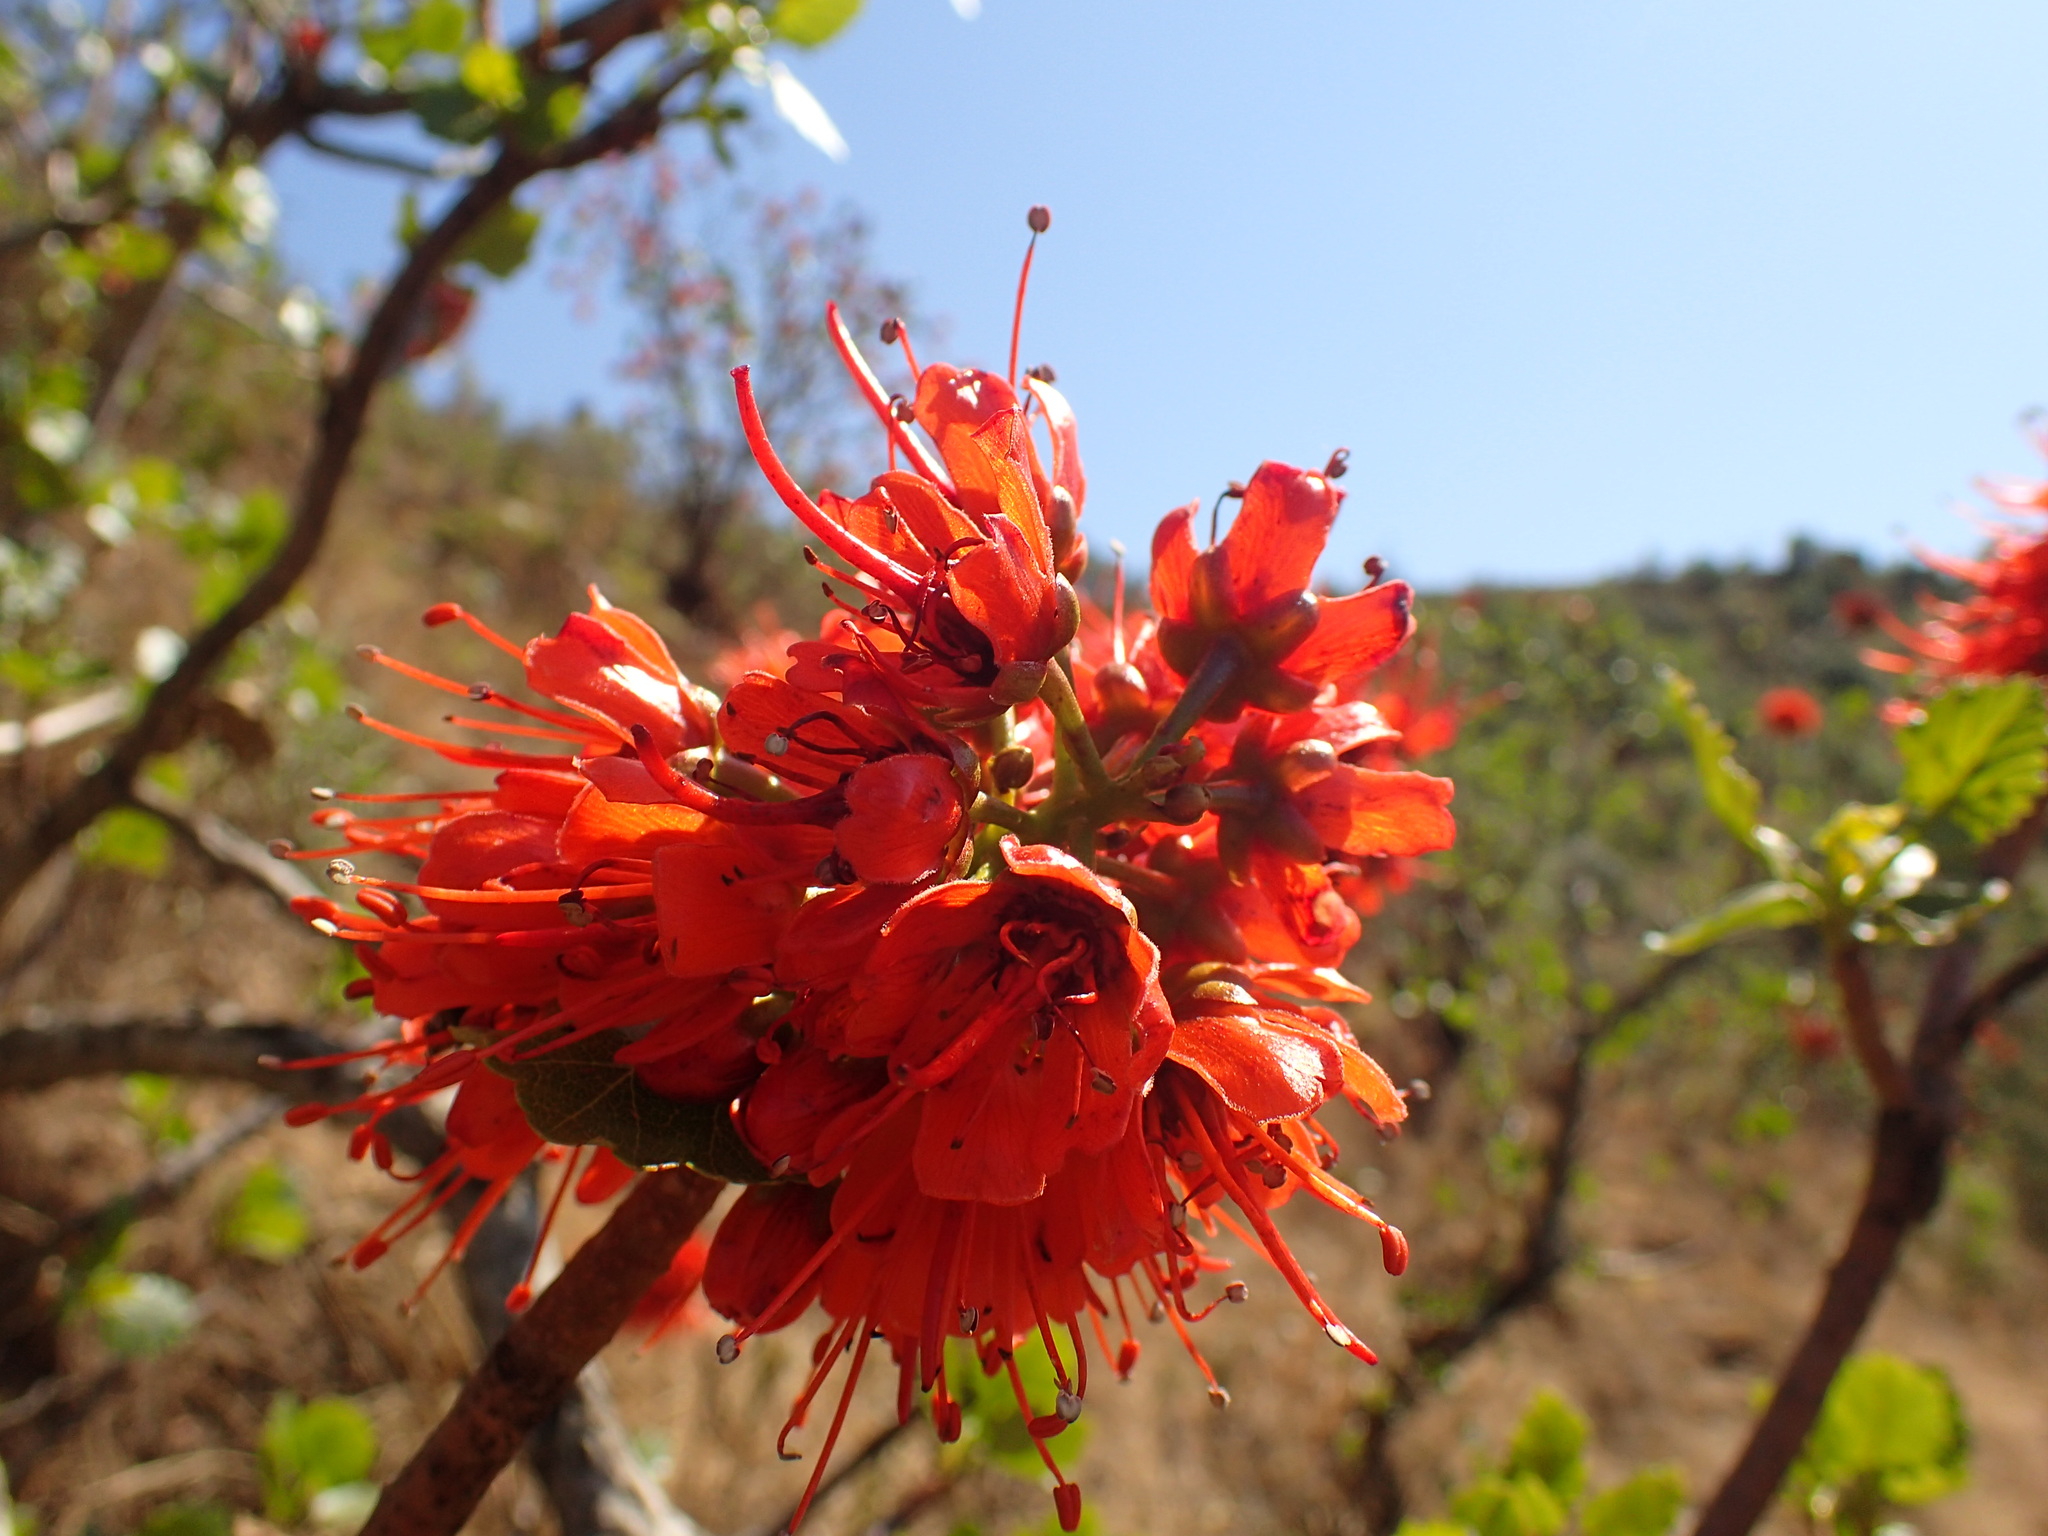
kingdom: Plantae
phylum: Tracheophyta
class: Magnoliopsida
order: Geraniales
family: Francoaceae
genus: Greyia
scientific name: Greyia sutherlandii
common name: Glossy bottlebrush
